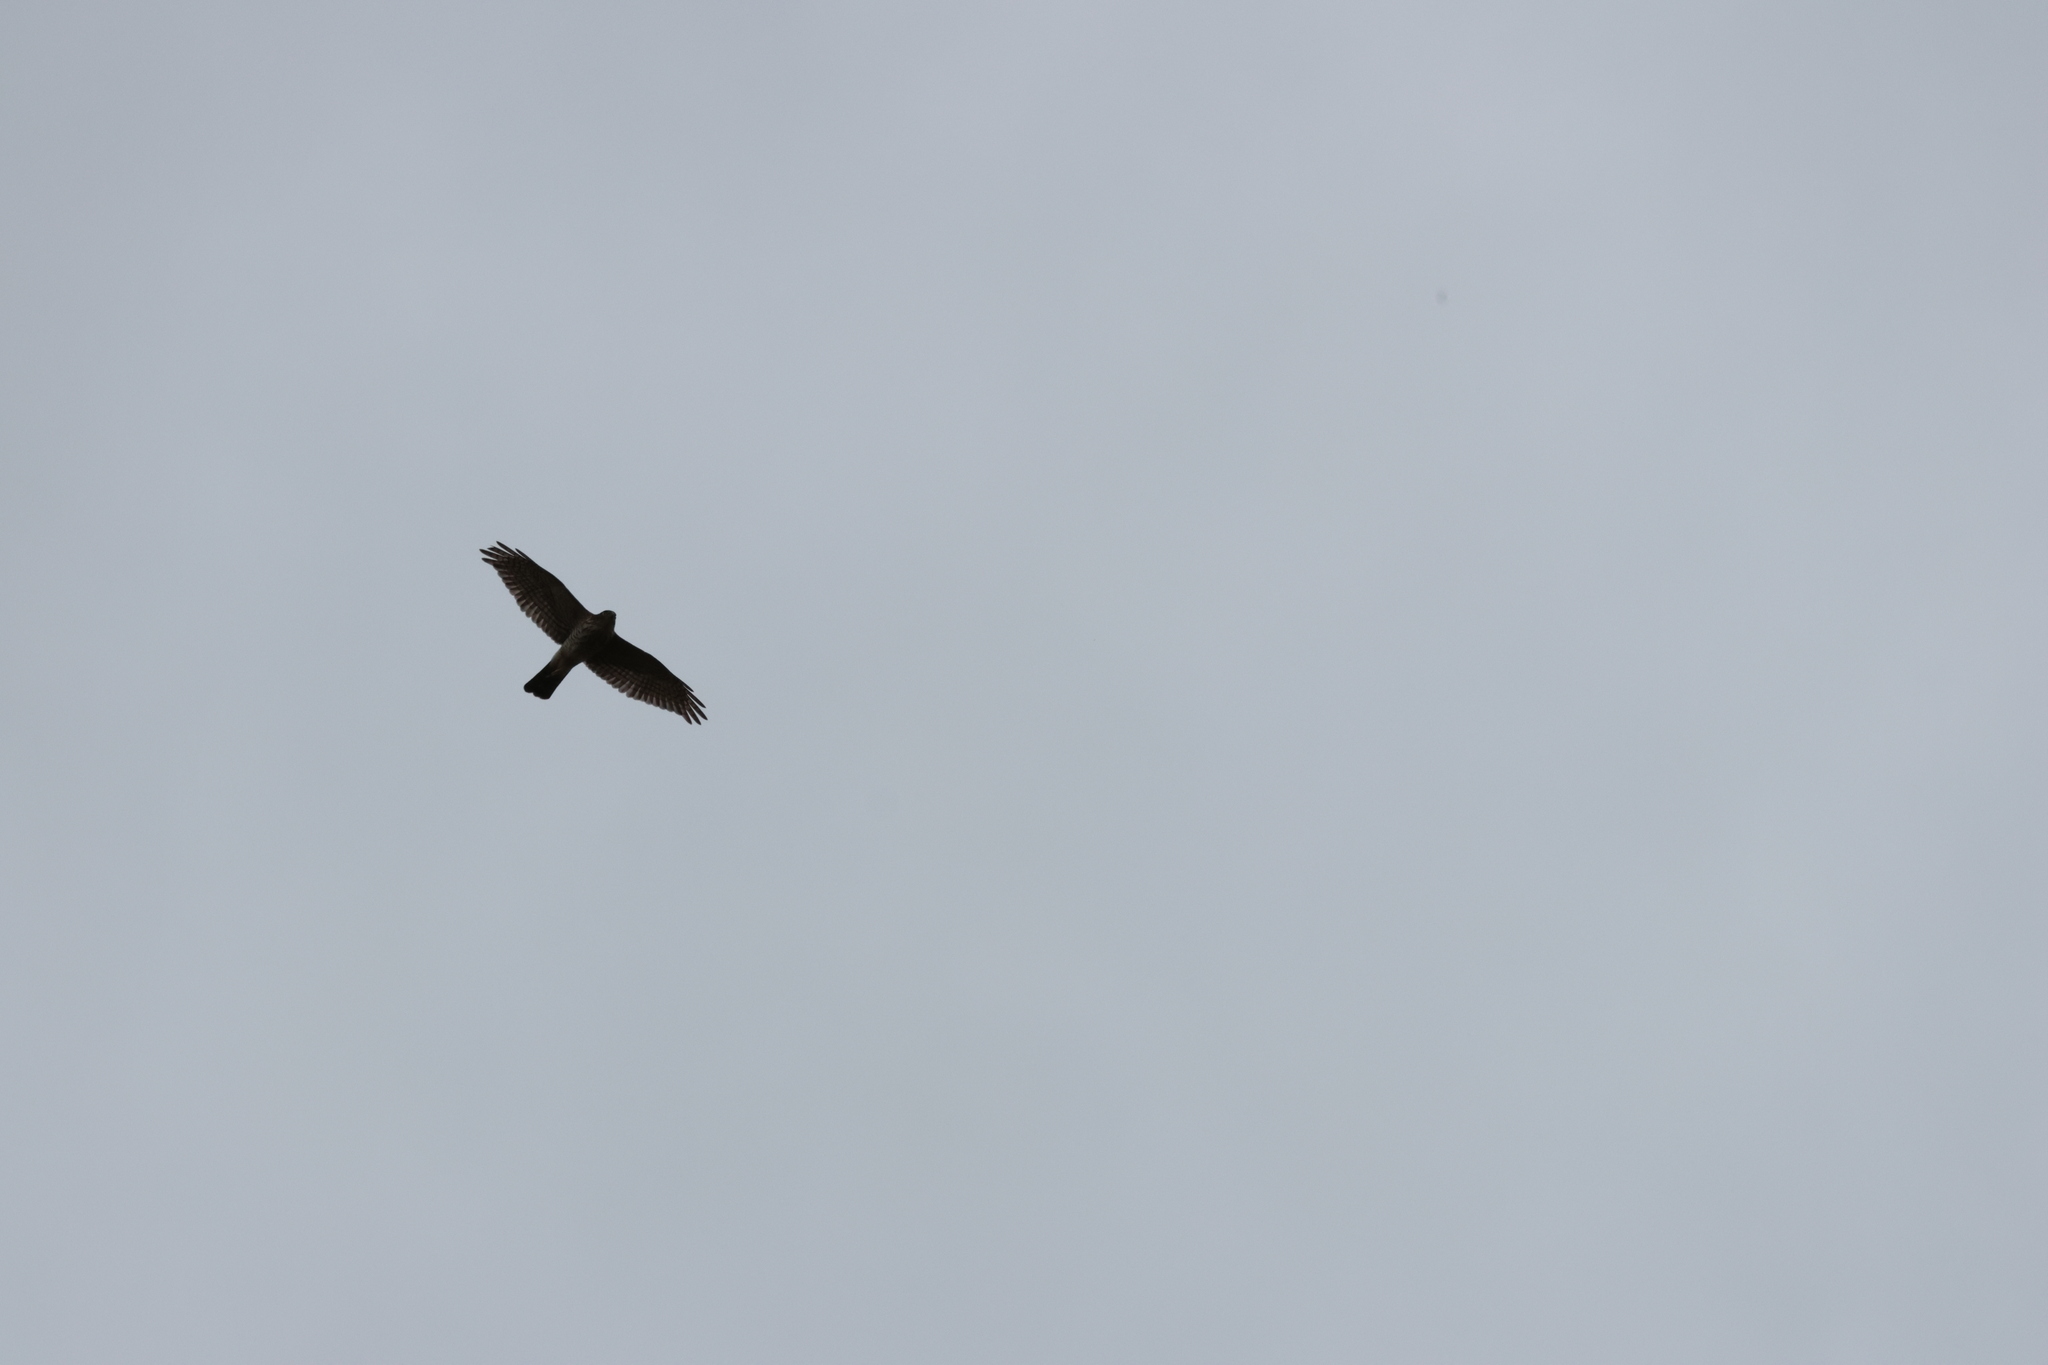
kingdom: Animalia
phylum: Chordata
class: Aves
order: Accipitriformes
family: Accipitridae
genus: Accipiter
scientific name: Accipiter gularis
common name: Japanese sparrowhawk
